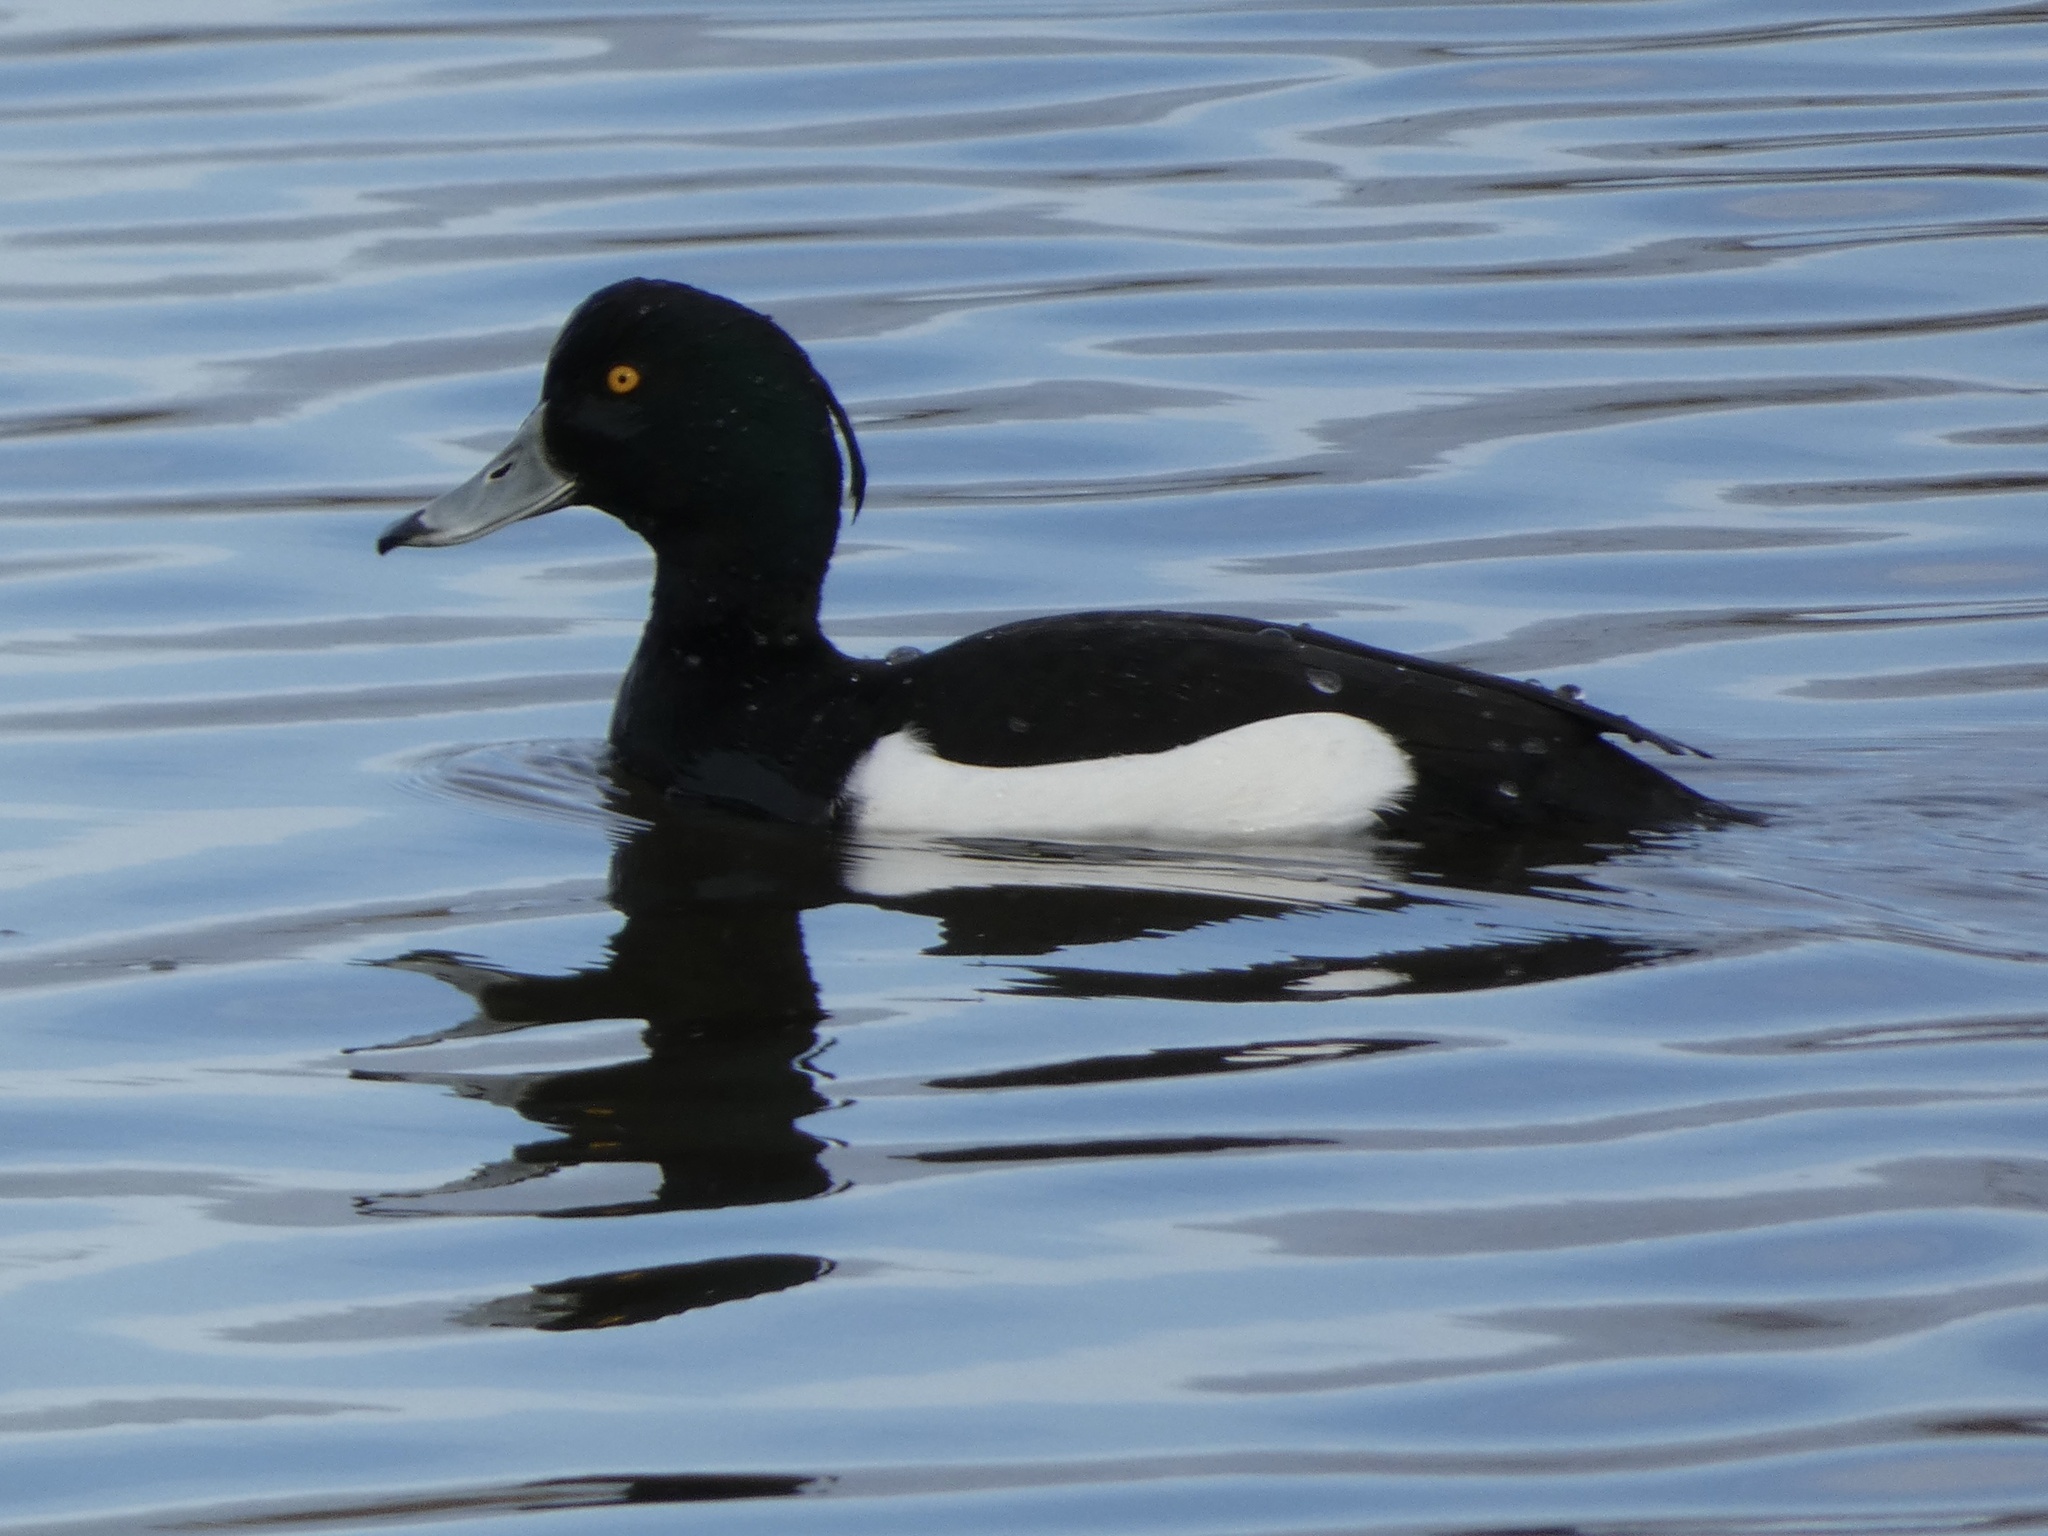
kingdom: Animalia
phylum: Chordata
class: Aves
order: Anseriformes
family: Anatidae
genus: Aythya
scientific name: Aythya fuligula
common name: Tufted duck
